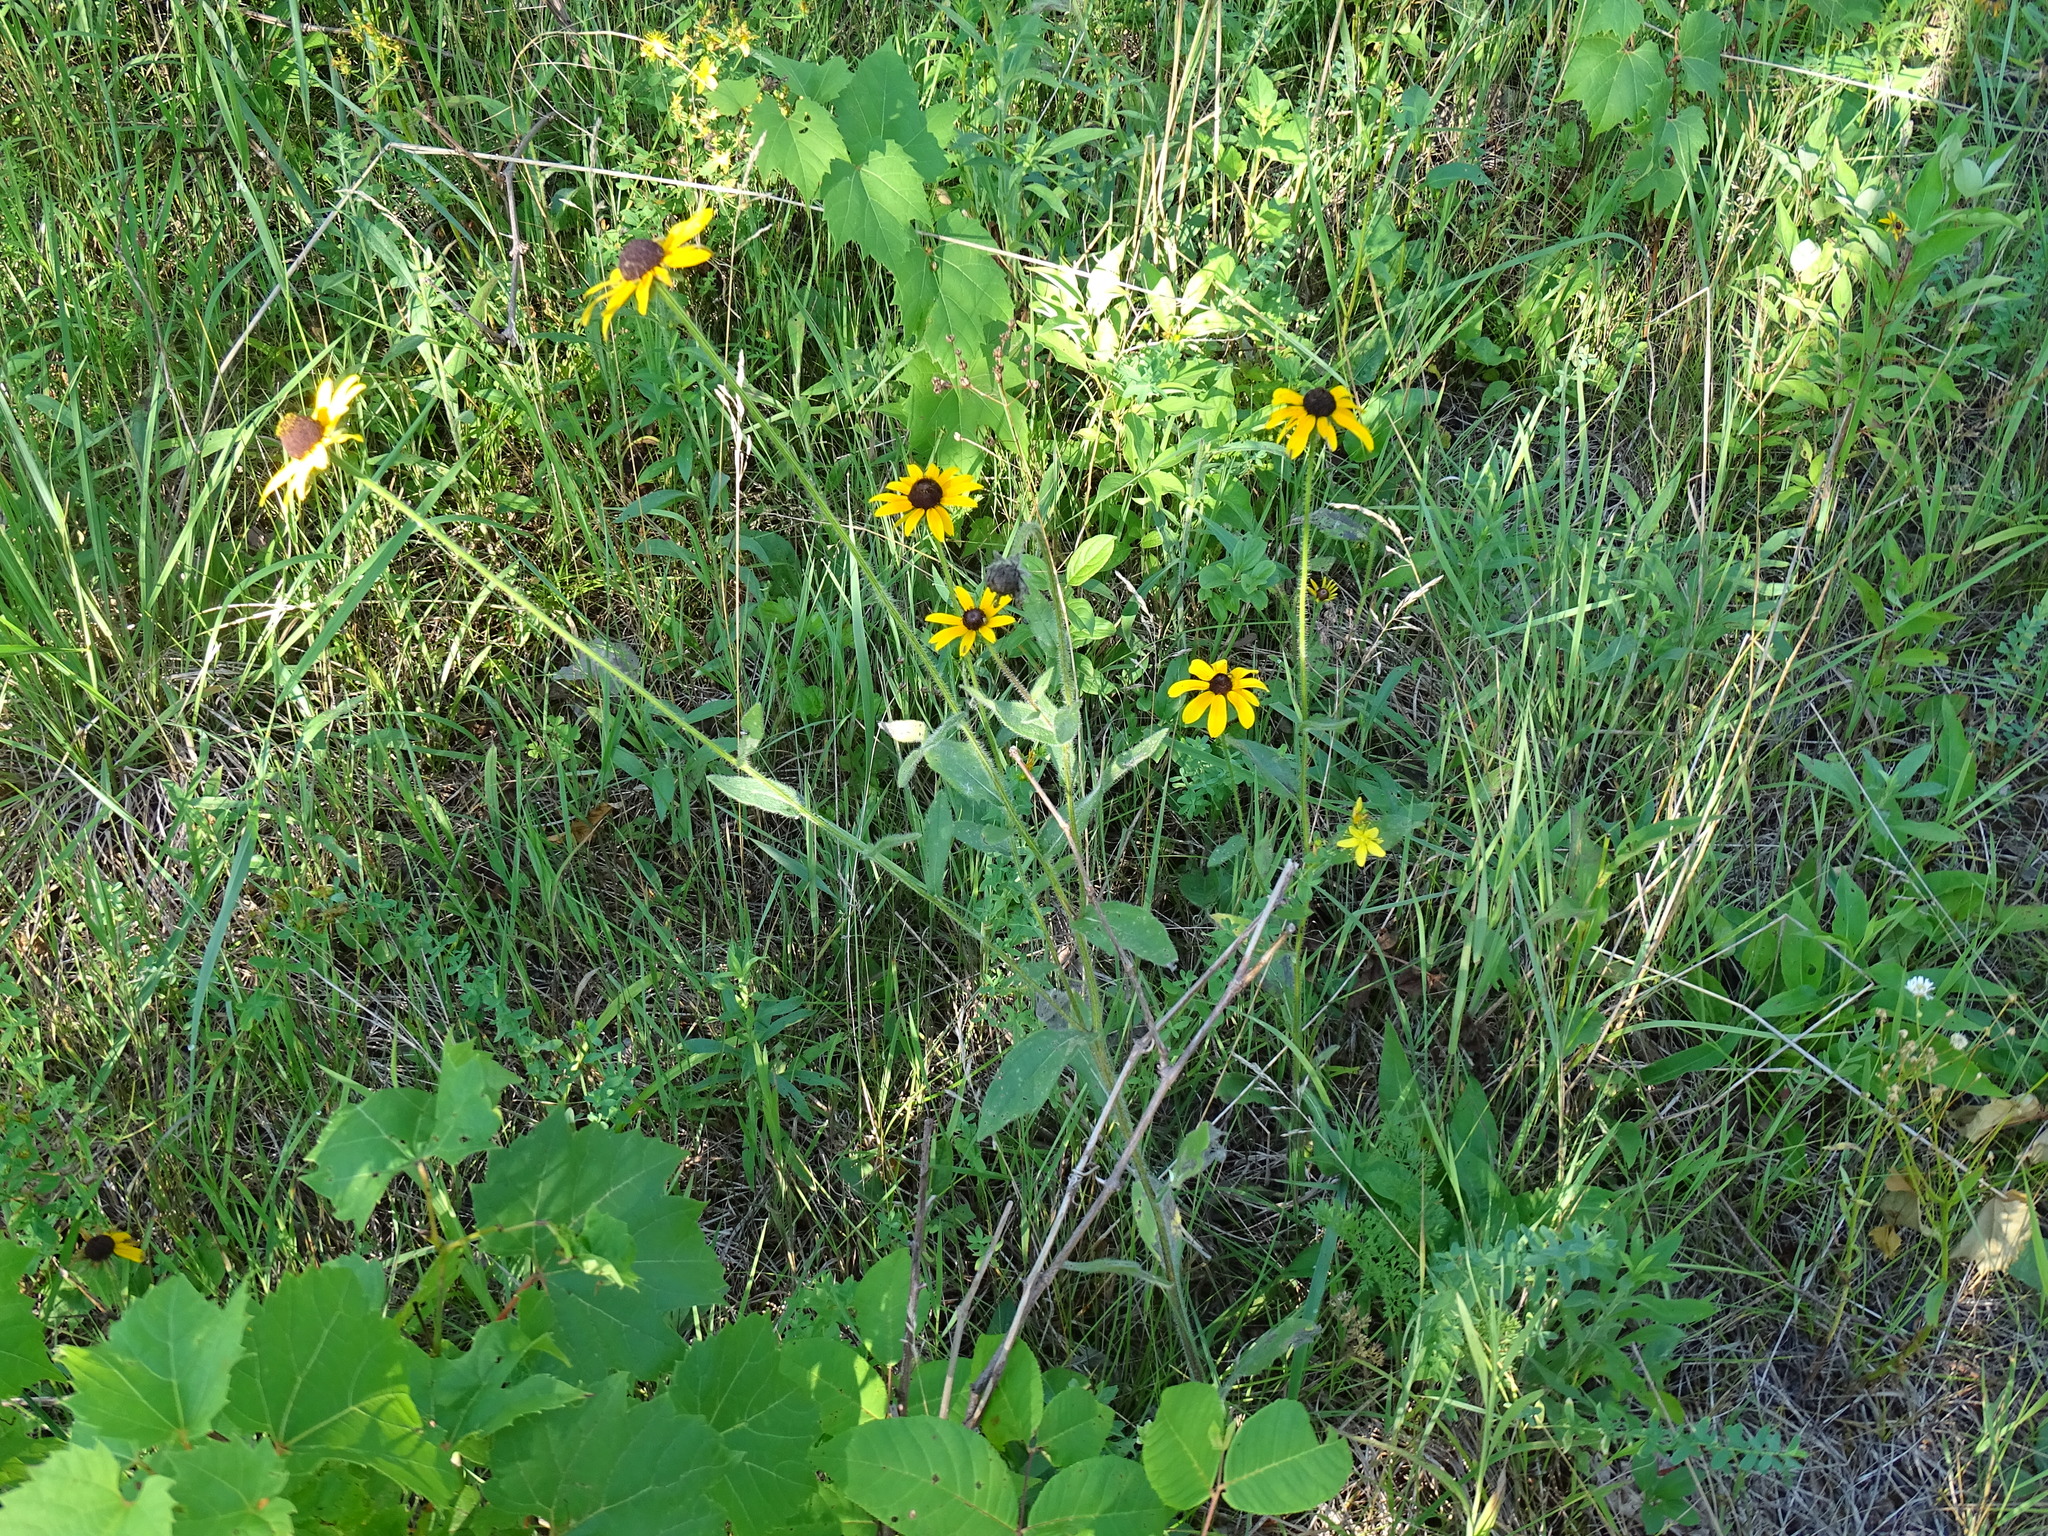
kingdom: Plantae
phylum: Tracheophyta
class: Magnoliopsida
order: Asterales
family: Asteraceae
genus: Rudbeckia
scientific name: Rudbeckia hirta
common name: Black-eyed-susan
